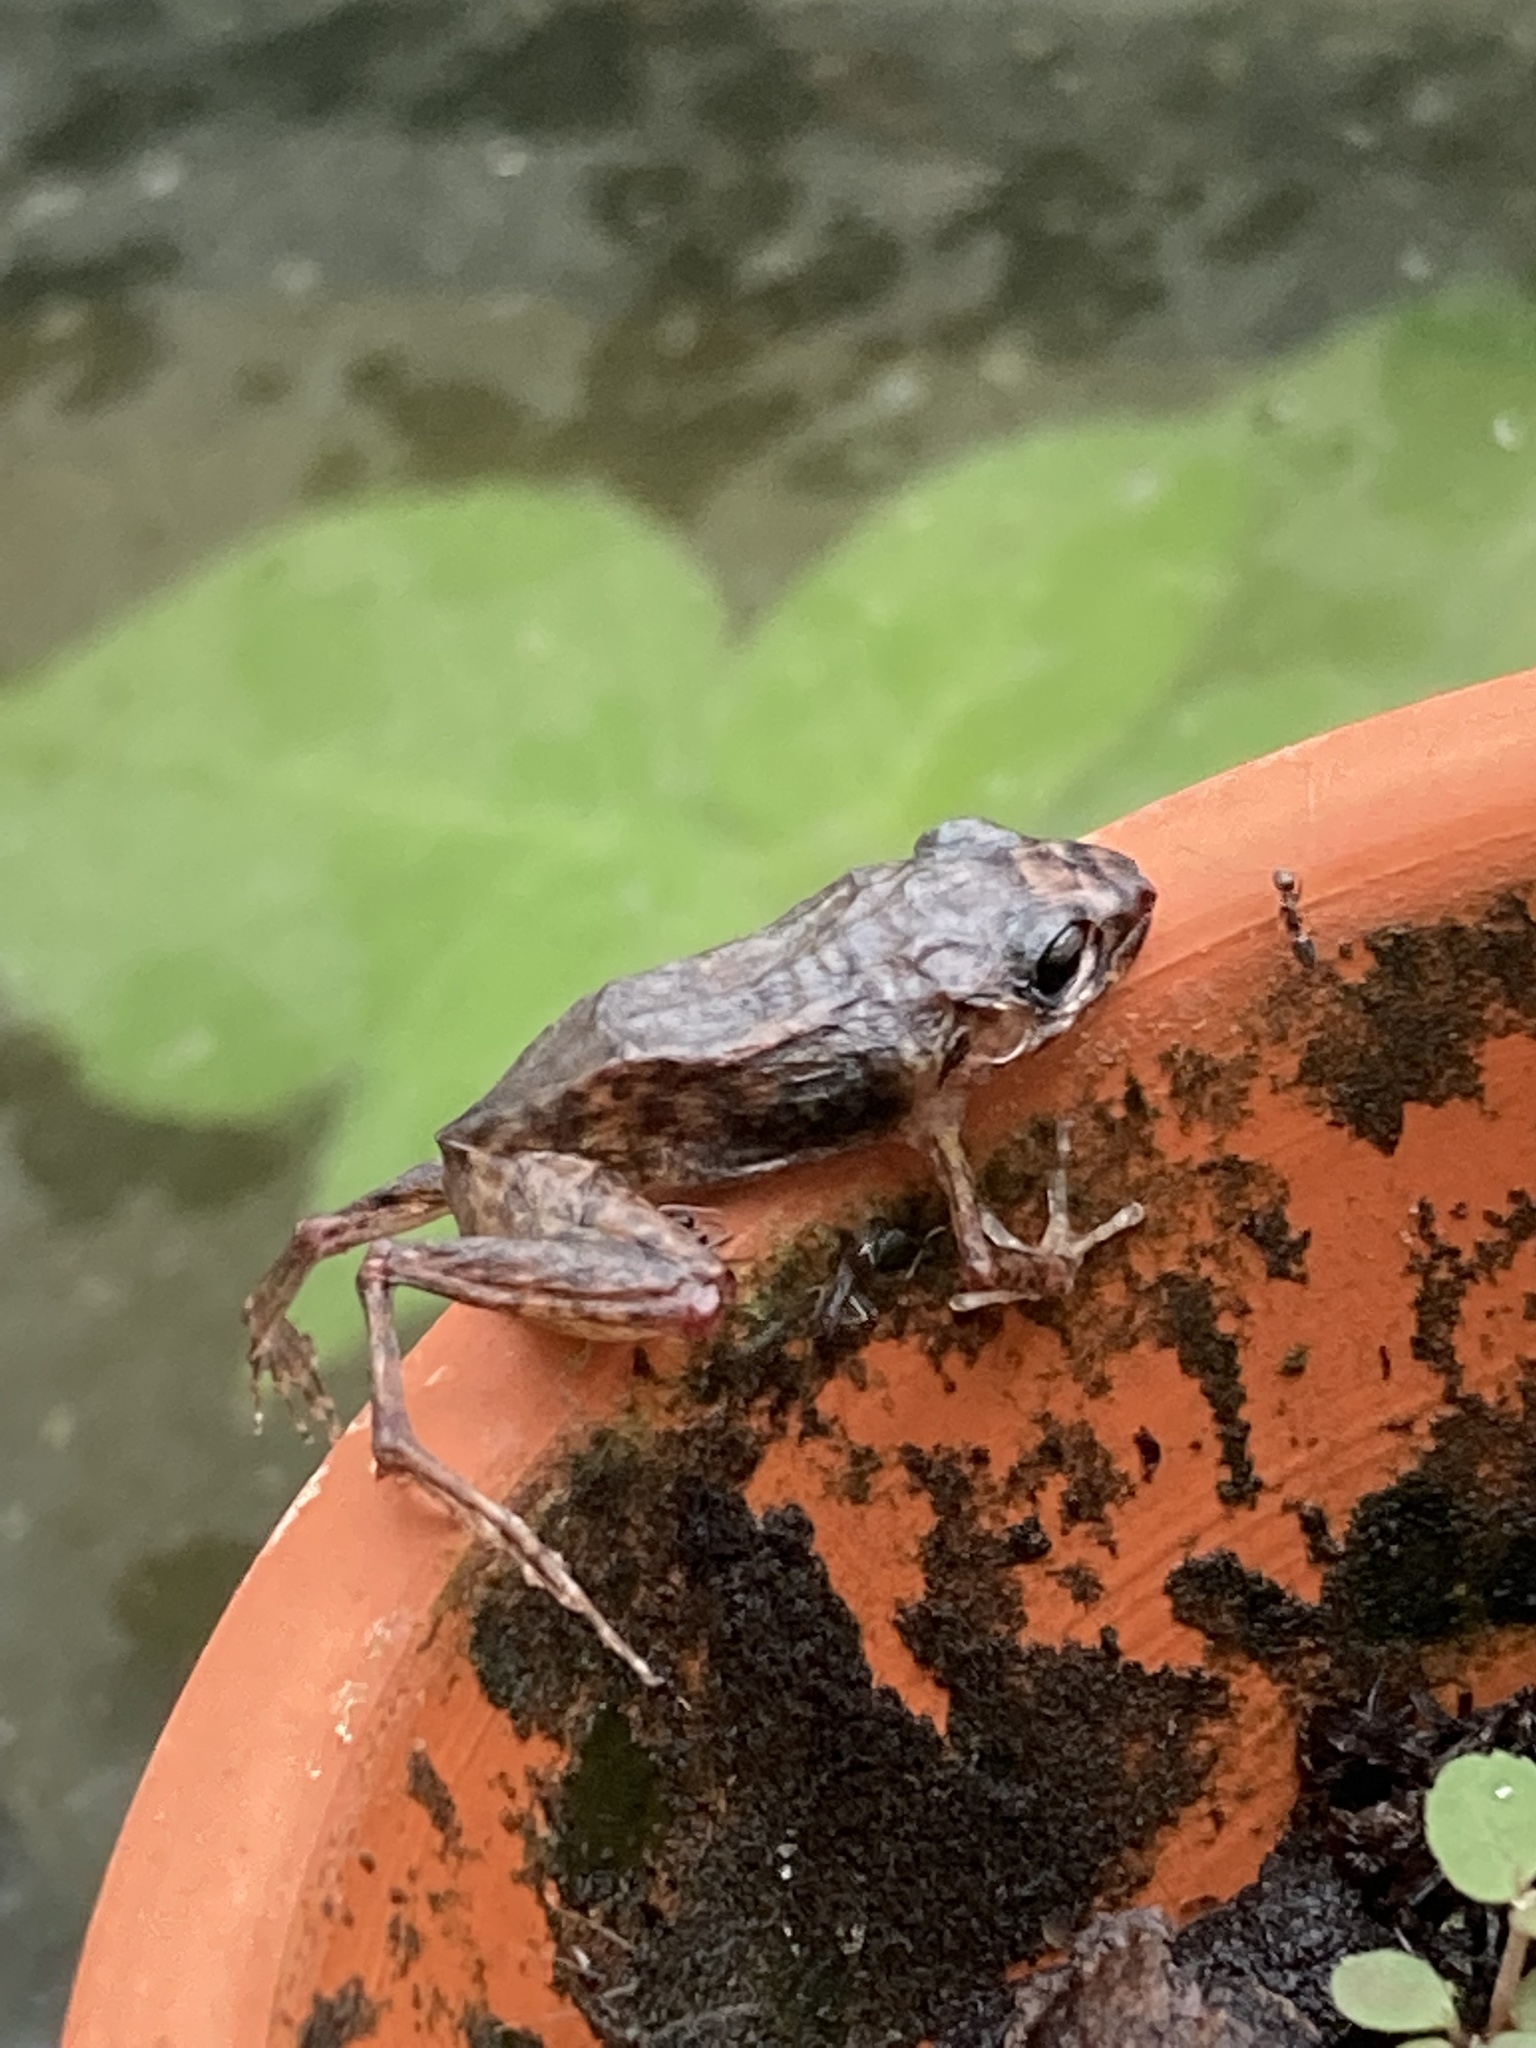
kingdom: Animalia
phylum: Chordata
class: Amphibia
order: Anura
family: Eleutherodactylidae
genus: Eleutherodactylus
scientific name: Eleutherodactylus planirostris
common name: Greenhouse frog
